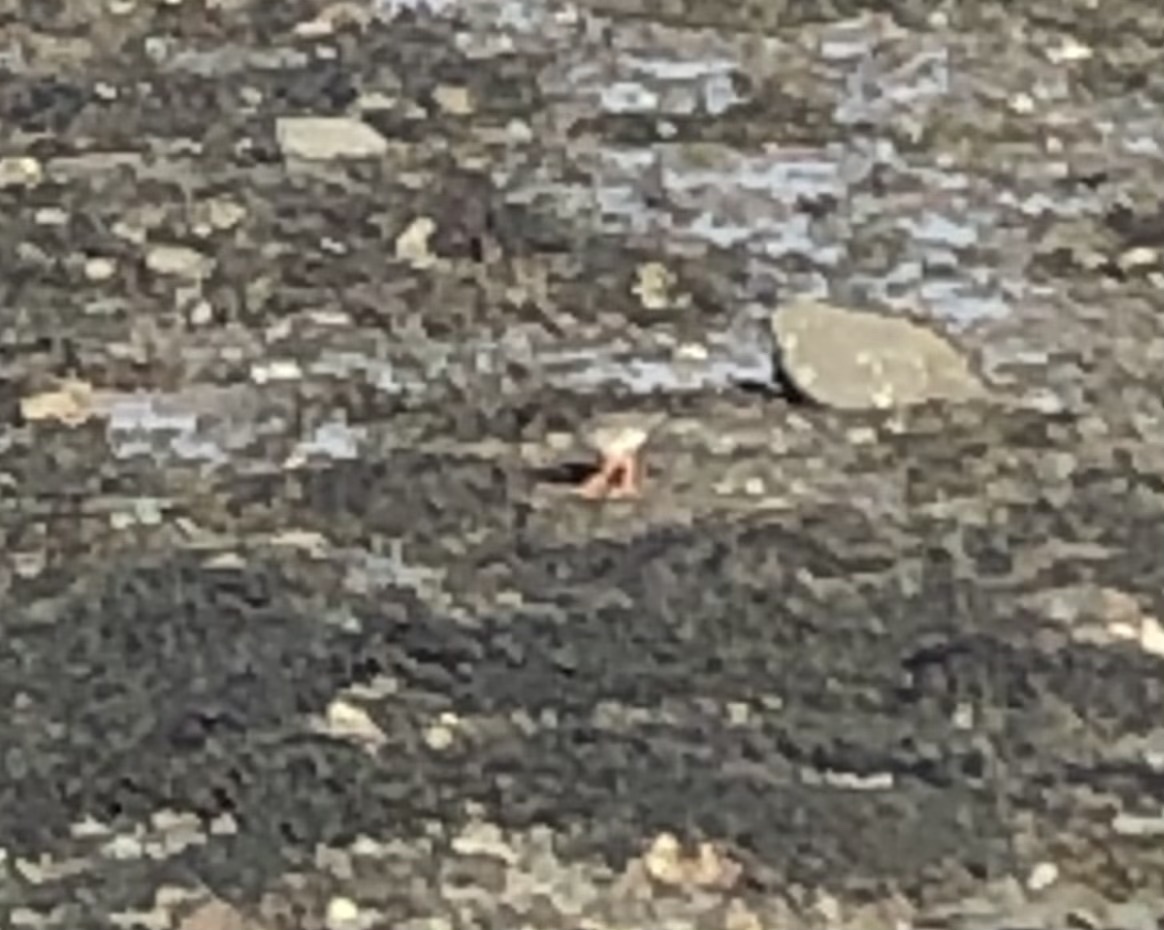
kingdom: Animalia
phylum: Chordata
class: Aves
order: Charadriiformes
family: Scolopacidae
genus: Tringa
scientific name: Tringa totanus
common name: Common redshank
